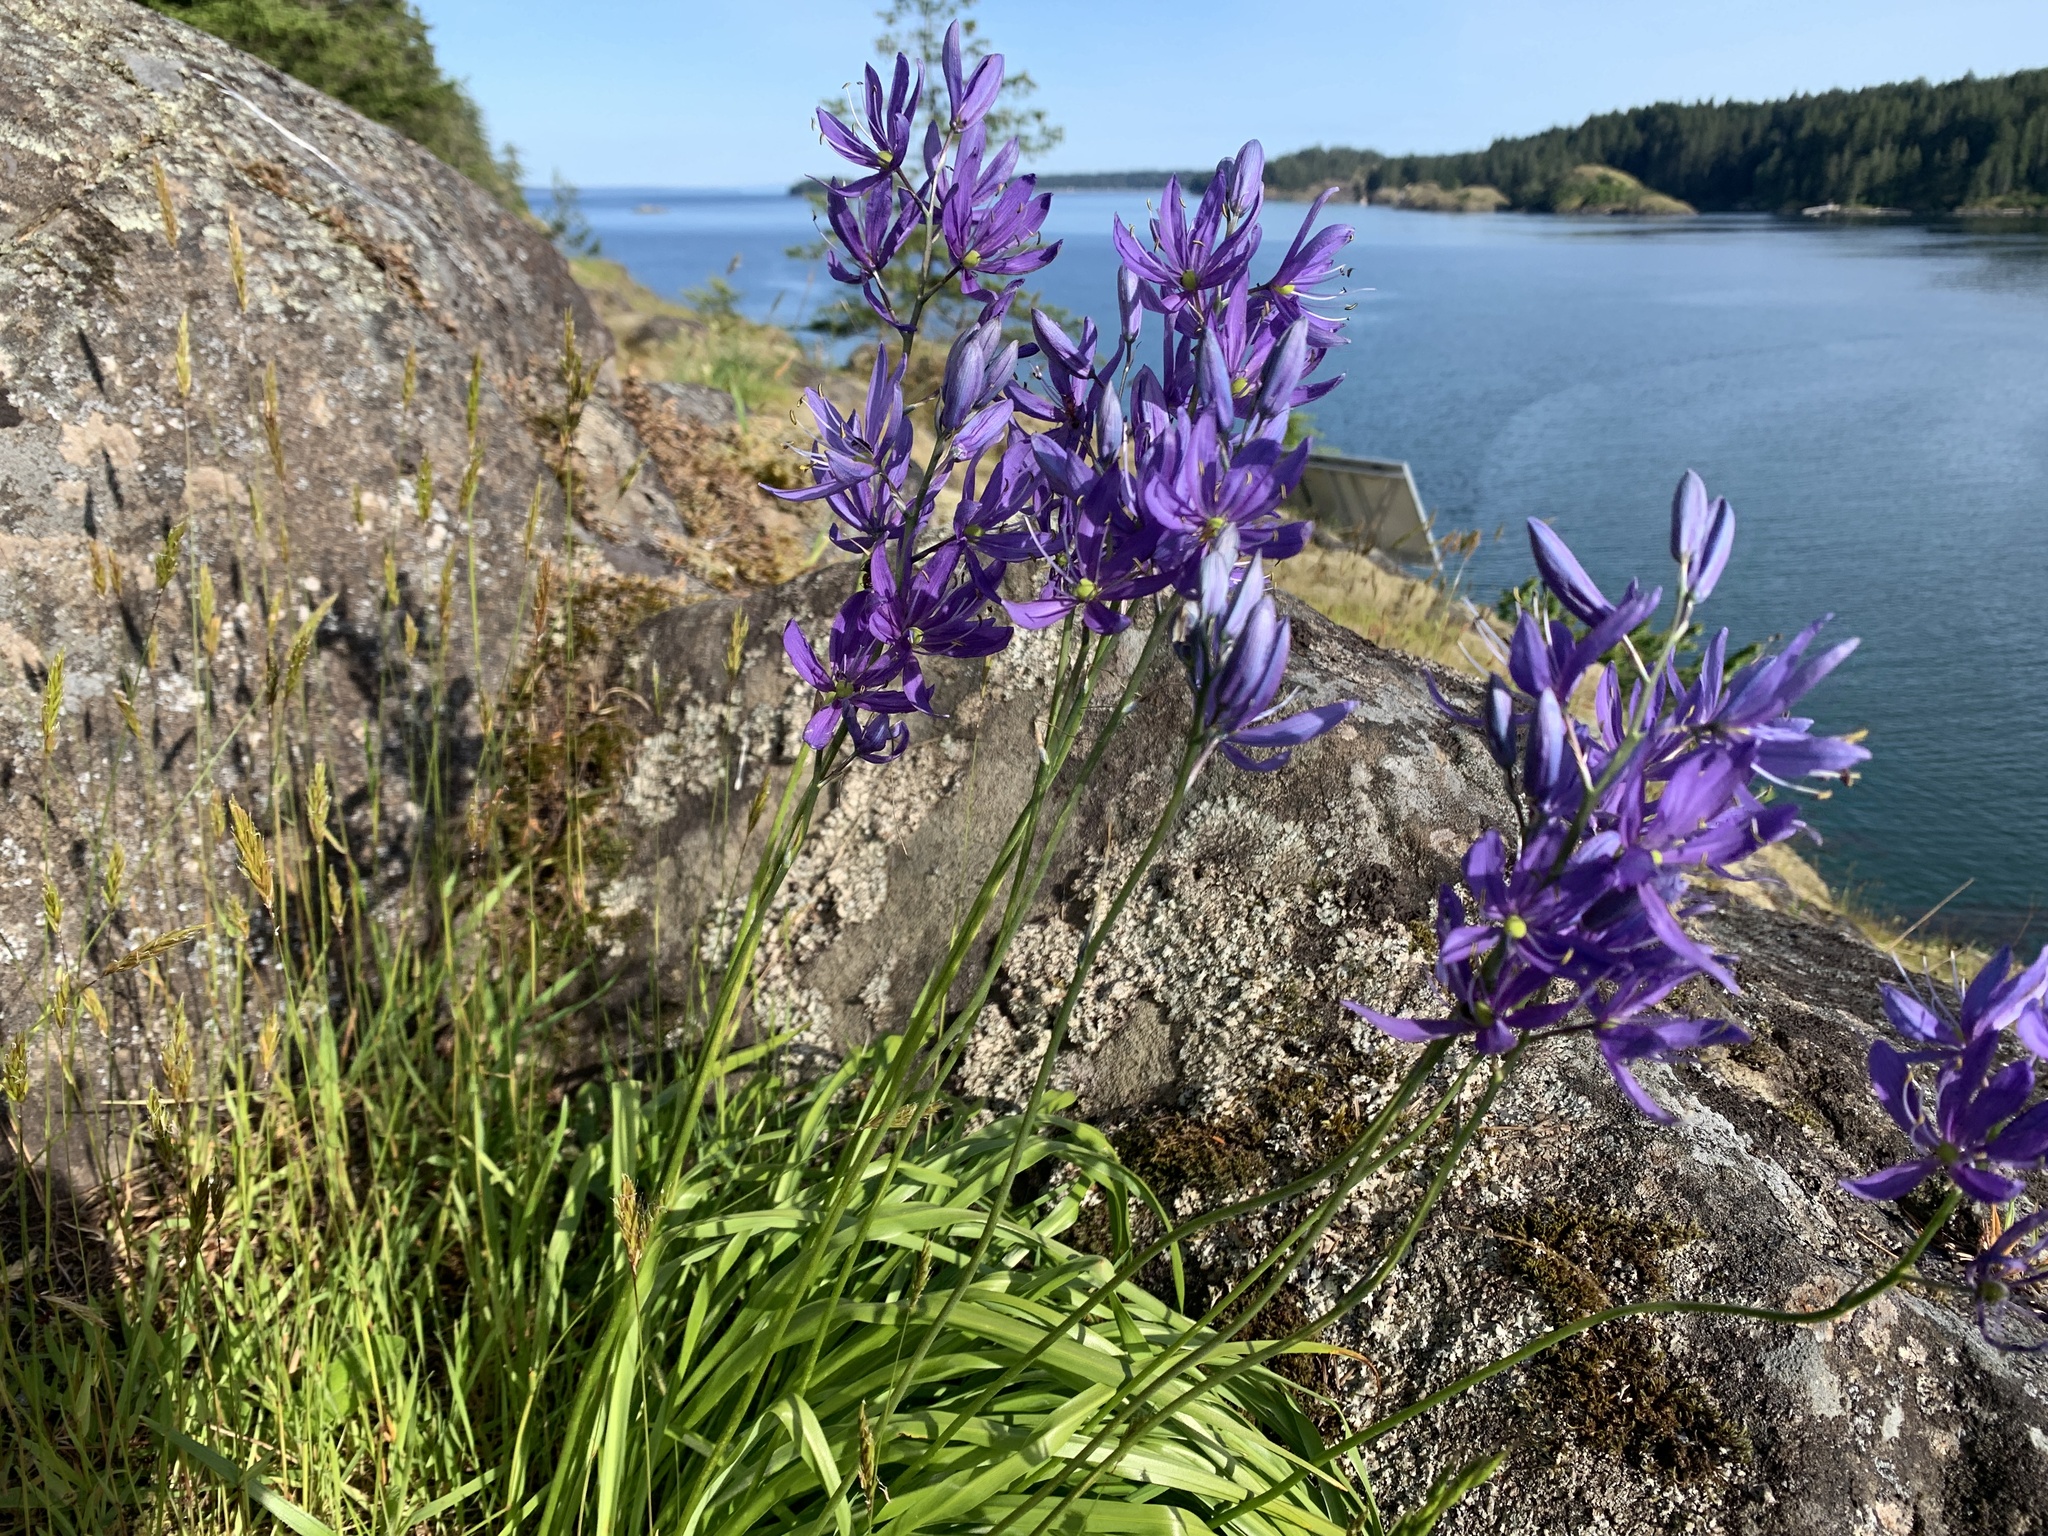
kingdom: Plantae
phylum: Tracheophyta
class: Liliopsida
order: Asparagales
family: Asparagaceae
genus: Camassia
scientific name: Camassia quamash
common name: Common camas
